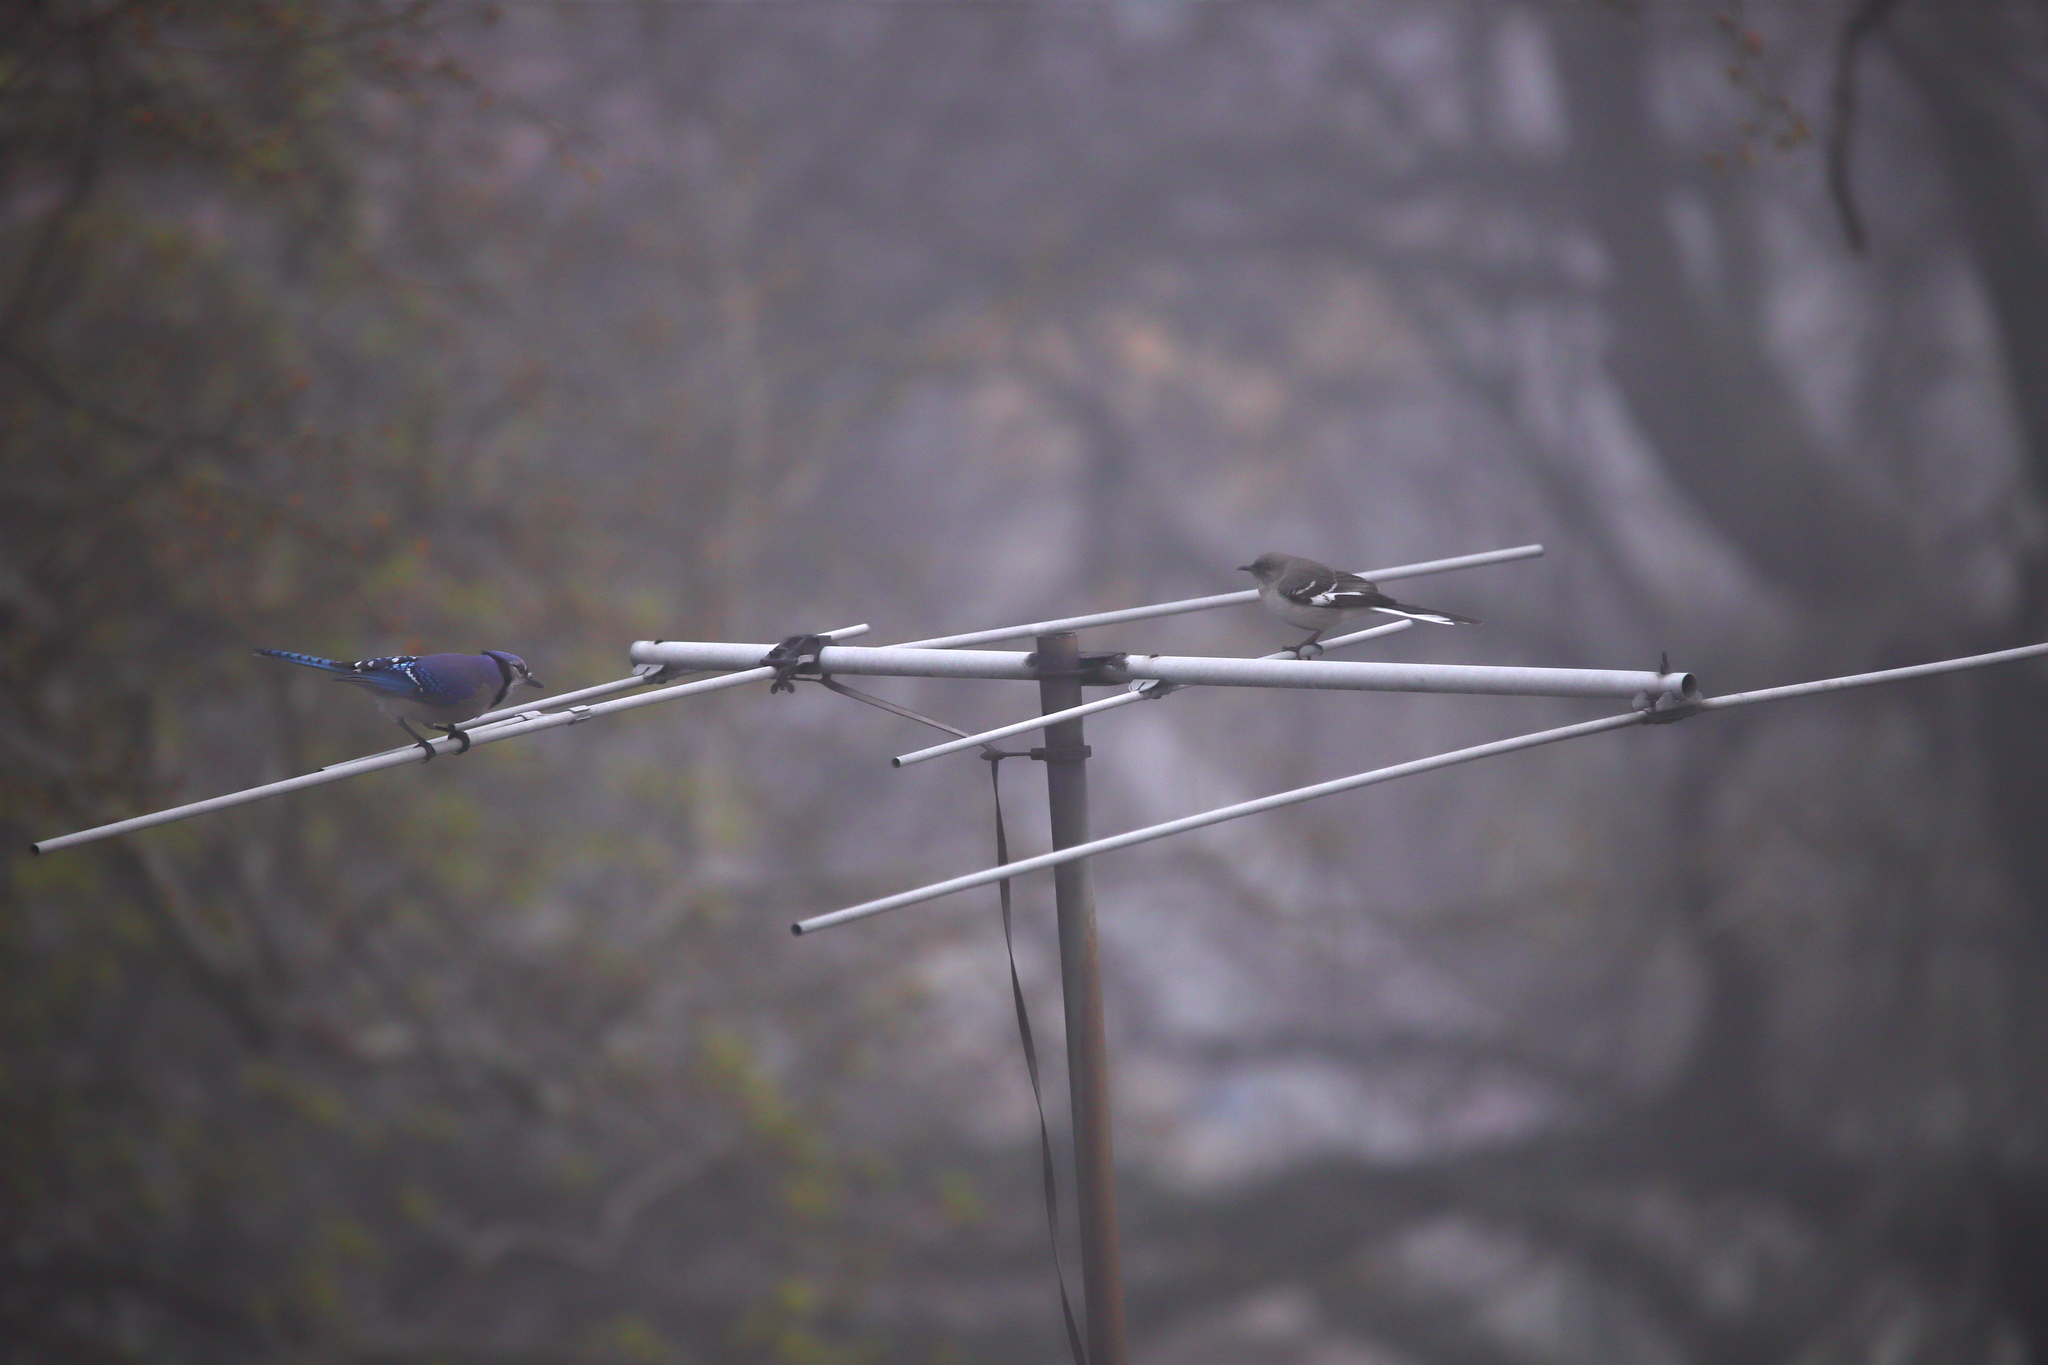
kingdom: Animalia
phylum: Chordata
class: Aves
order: Passeriformes
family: Mimidae
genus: Mimus
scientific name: Mimus polyglottos
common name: Northern mockingbird
